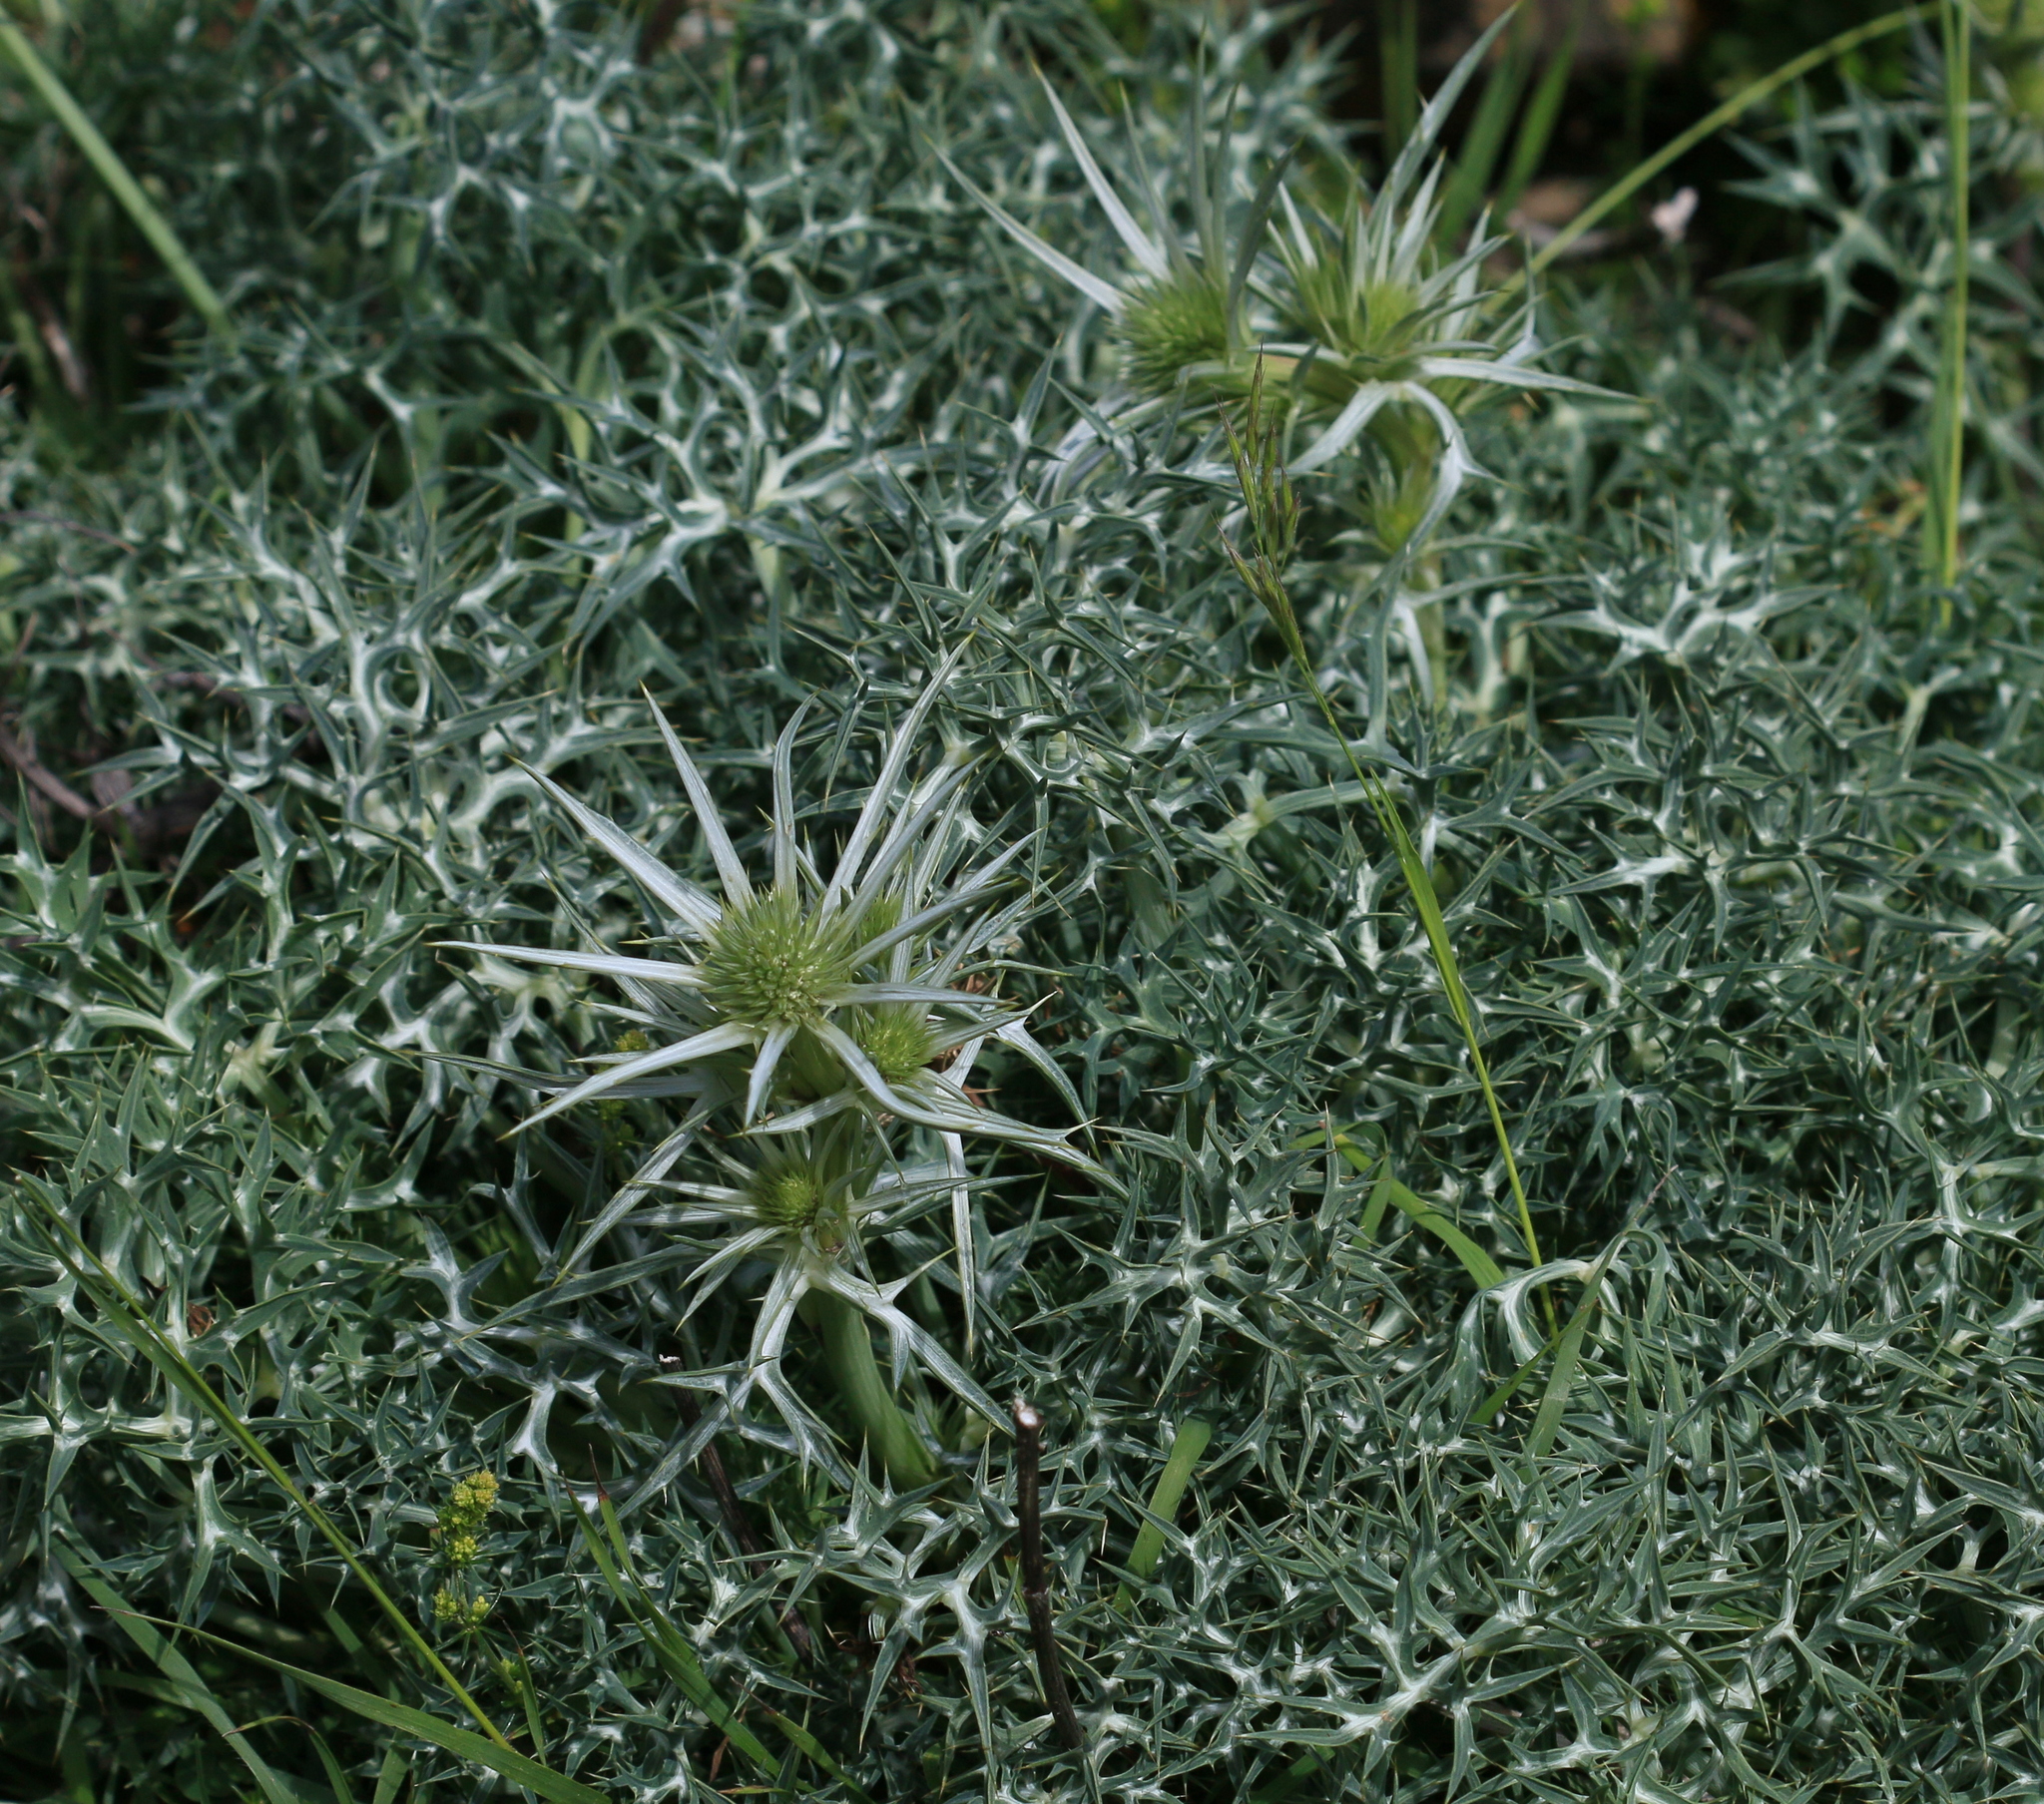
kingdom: Plantae
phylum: Tracheophyta
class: Magnoliopsida
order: Apiales
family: Apiaceae
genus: Eryngium
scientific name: Eryngium bourgatii
